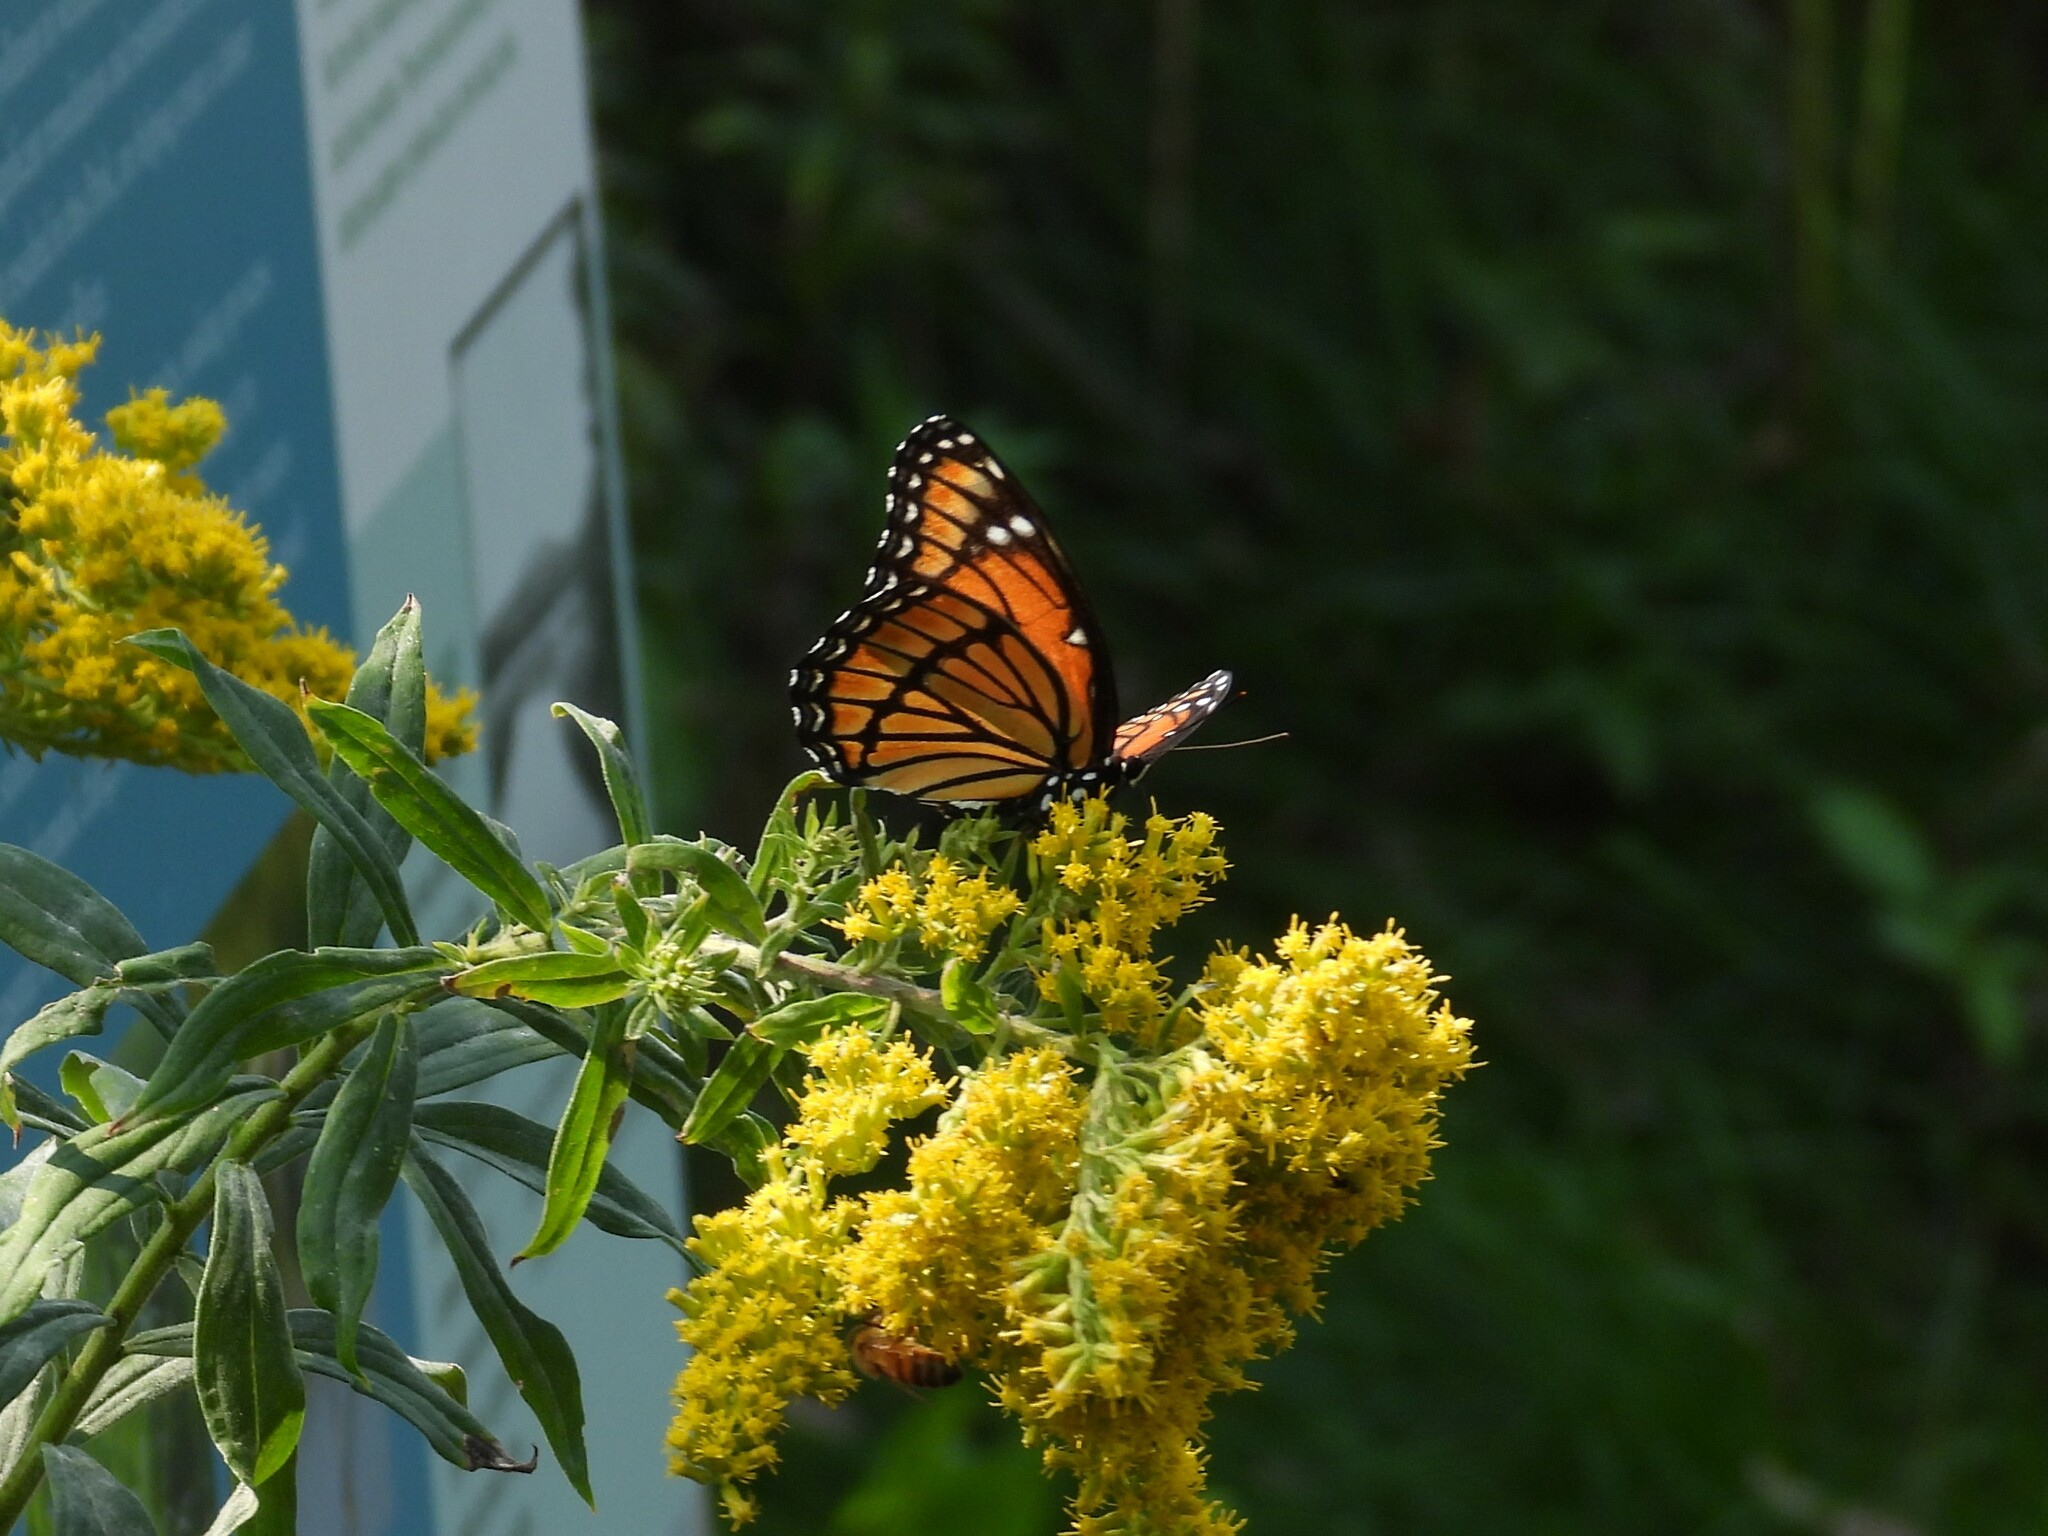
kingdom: Animalia
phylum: Arthropoda
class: Insecta
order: Lepidoptera
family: Nymphalidae
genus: Limenitis
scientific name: Limenitis archippus
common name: Viceroy
